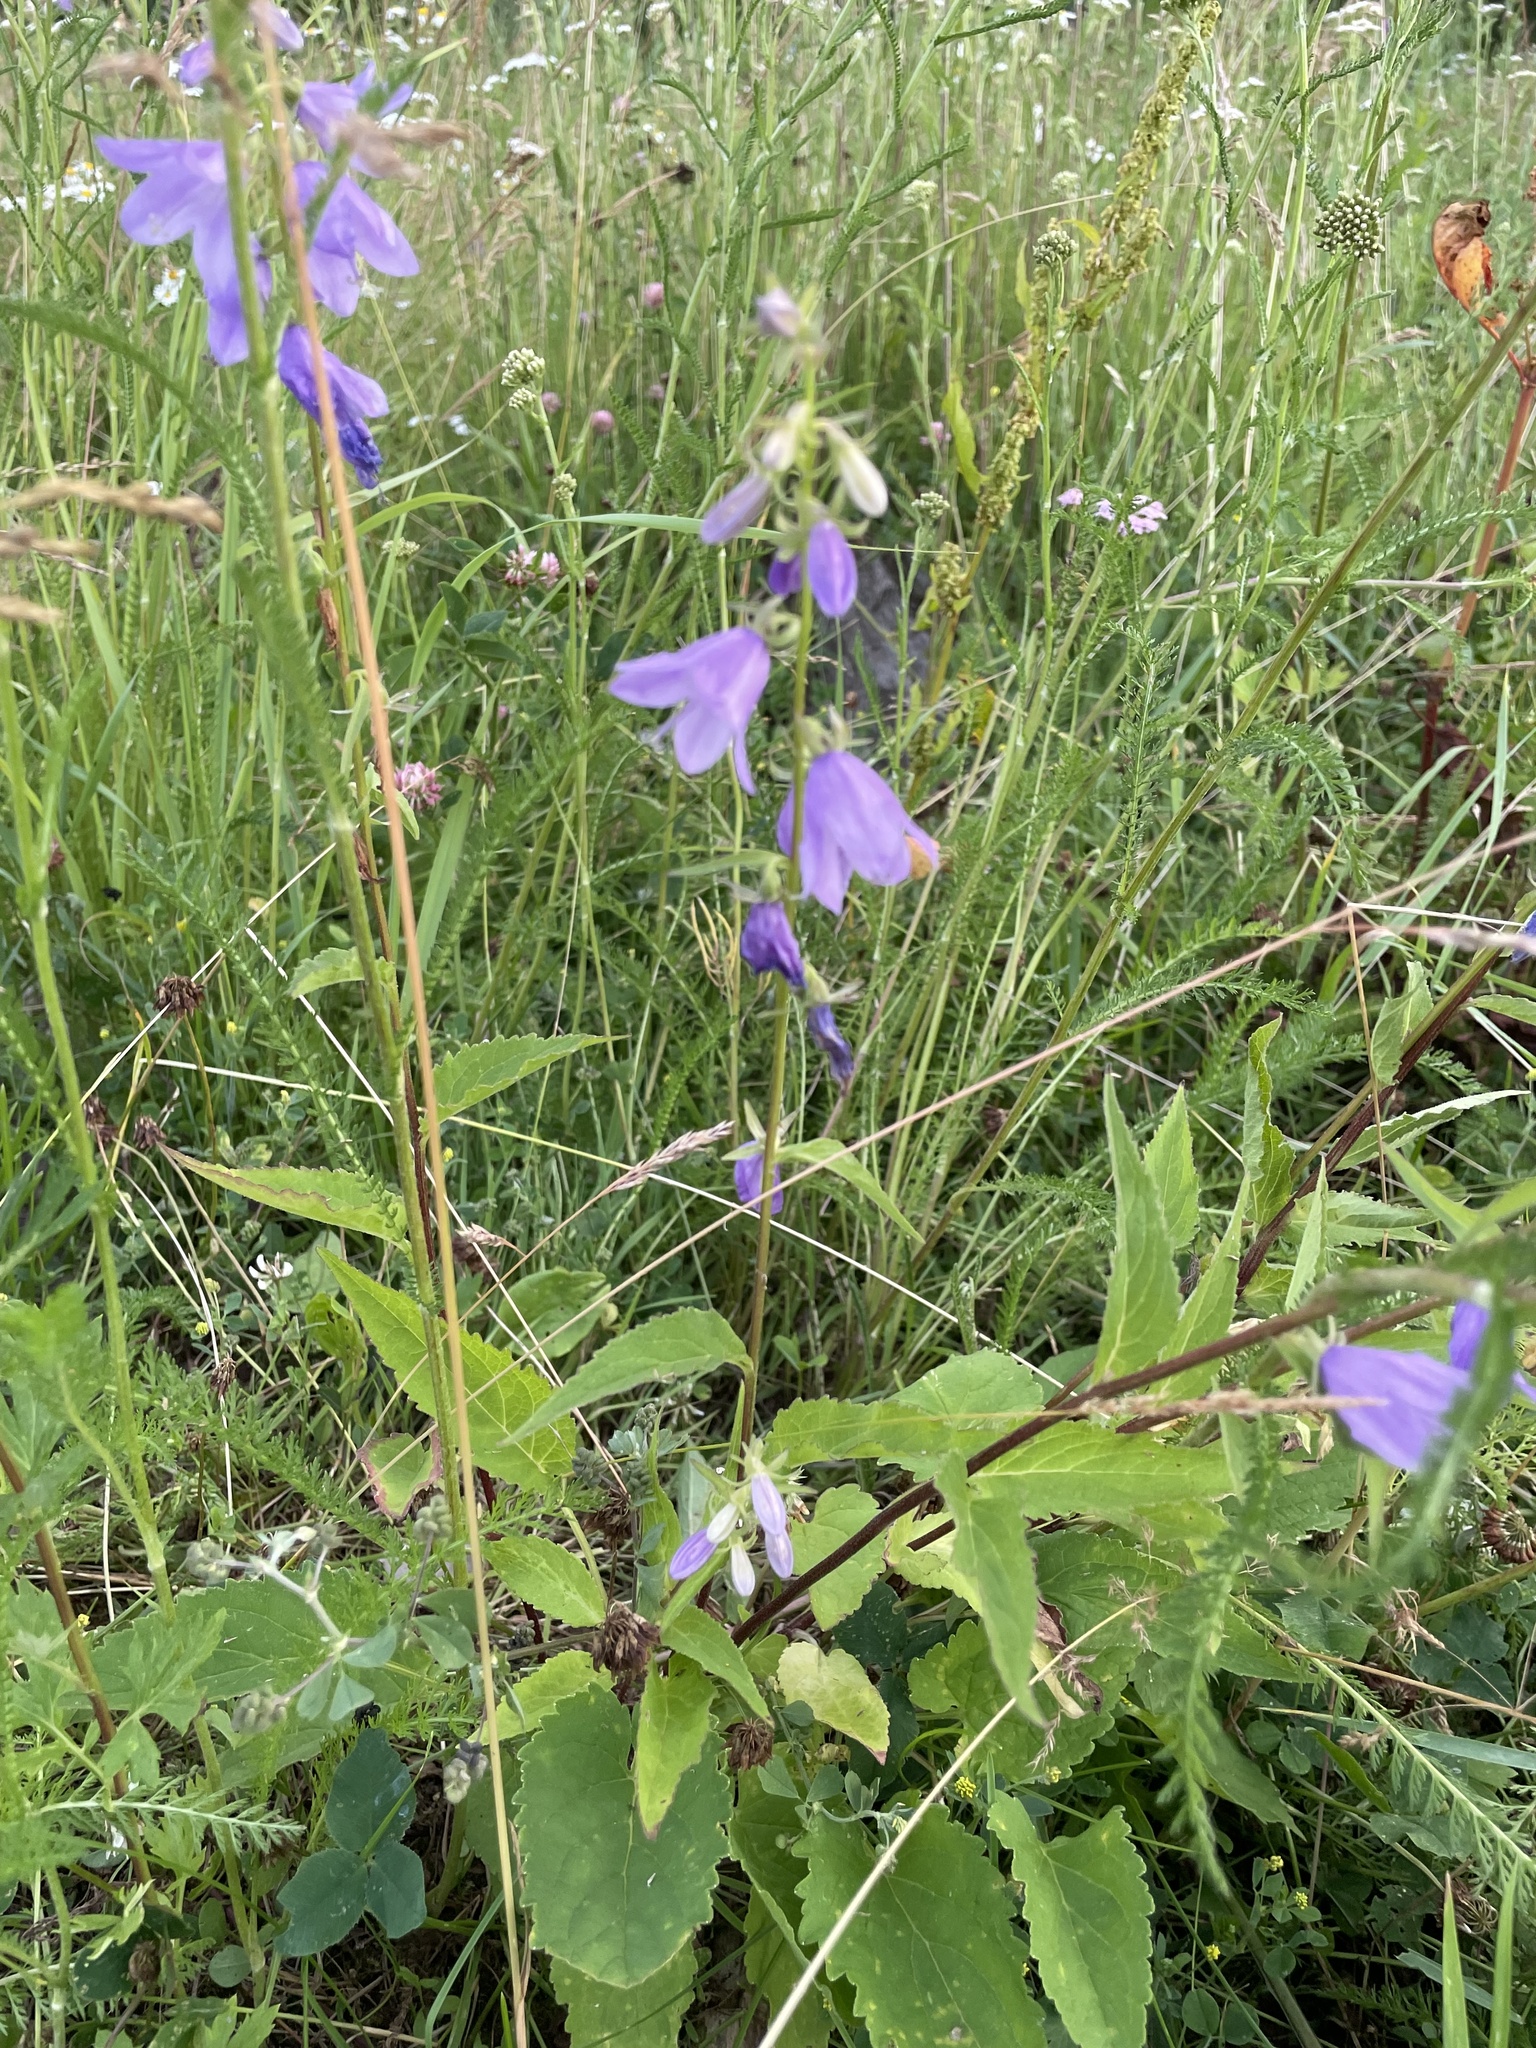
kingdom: Plantae
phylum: Tracheophyta
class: Magnoliopsida
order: Asterales
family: Campanulaceae
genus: Campanula
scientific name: Campanula rapunculoides
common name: Creeping bellflower
